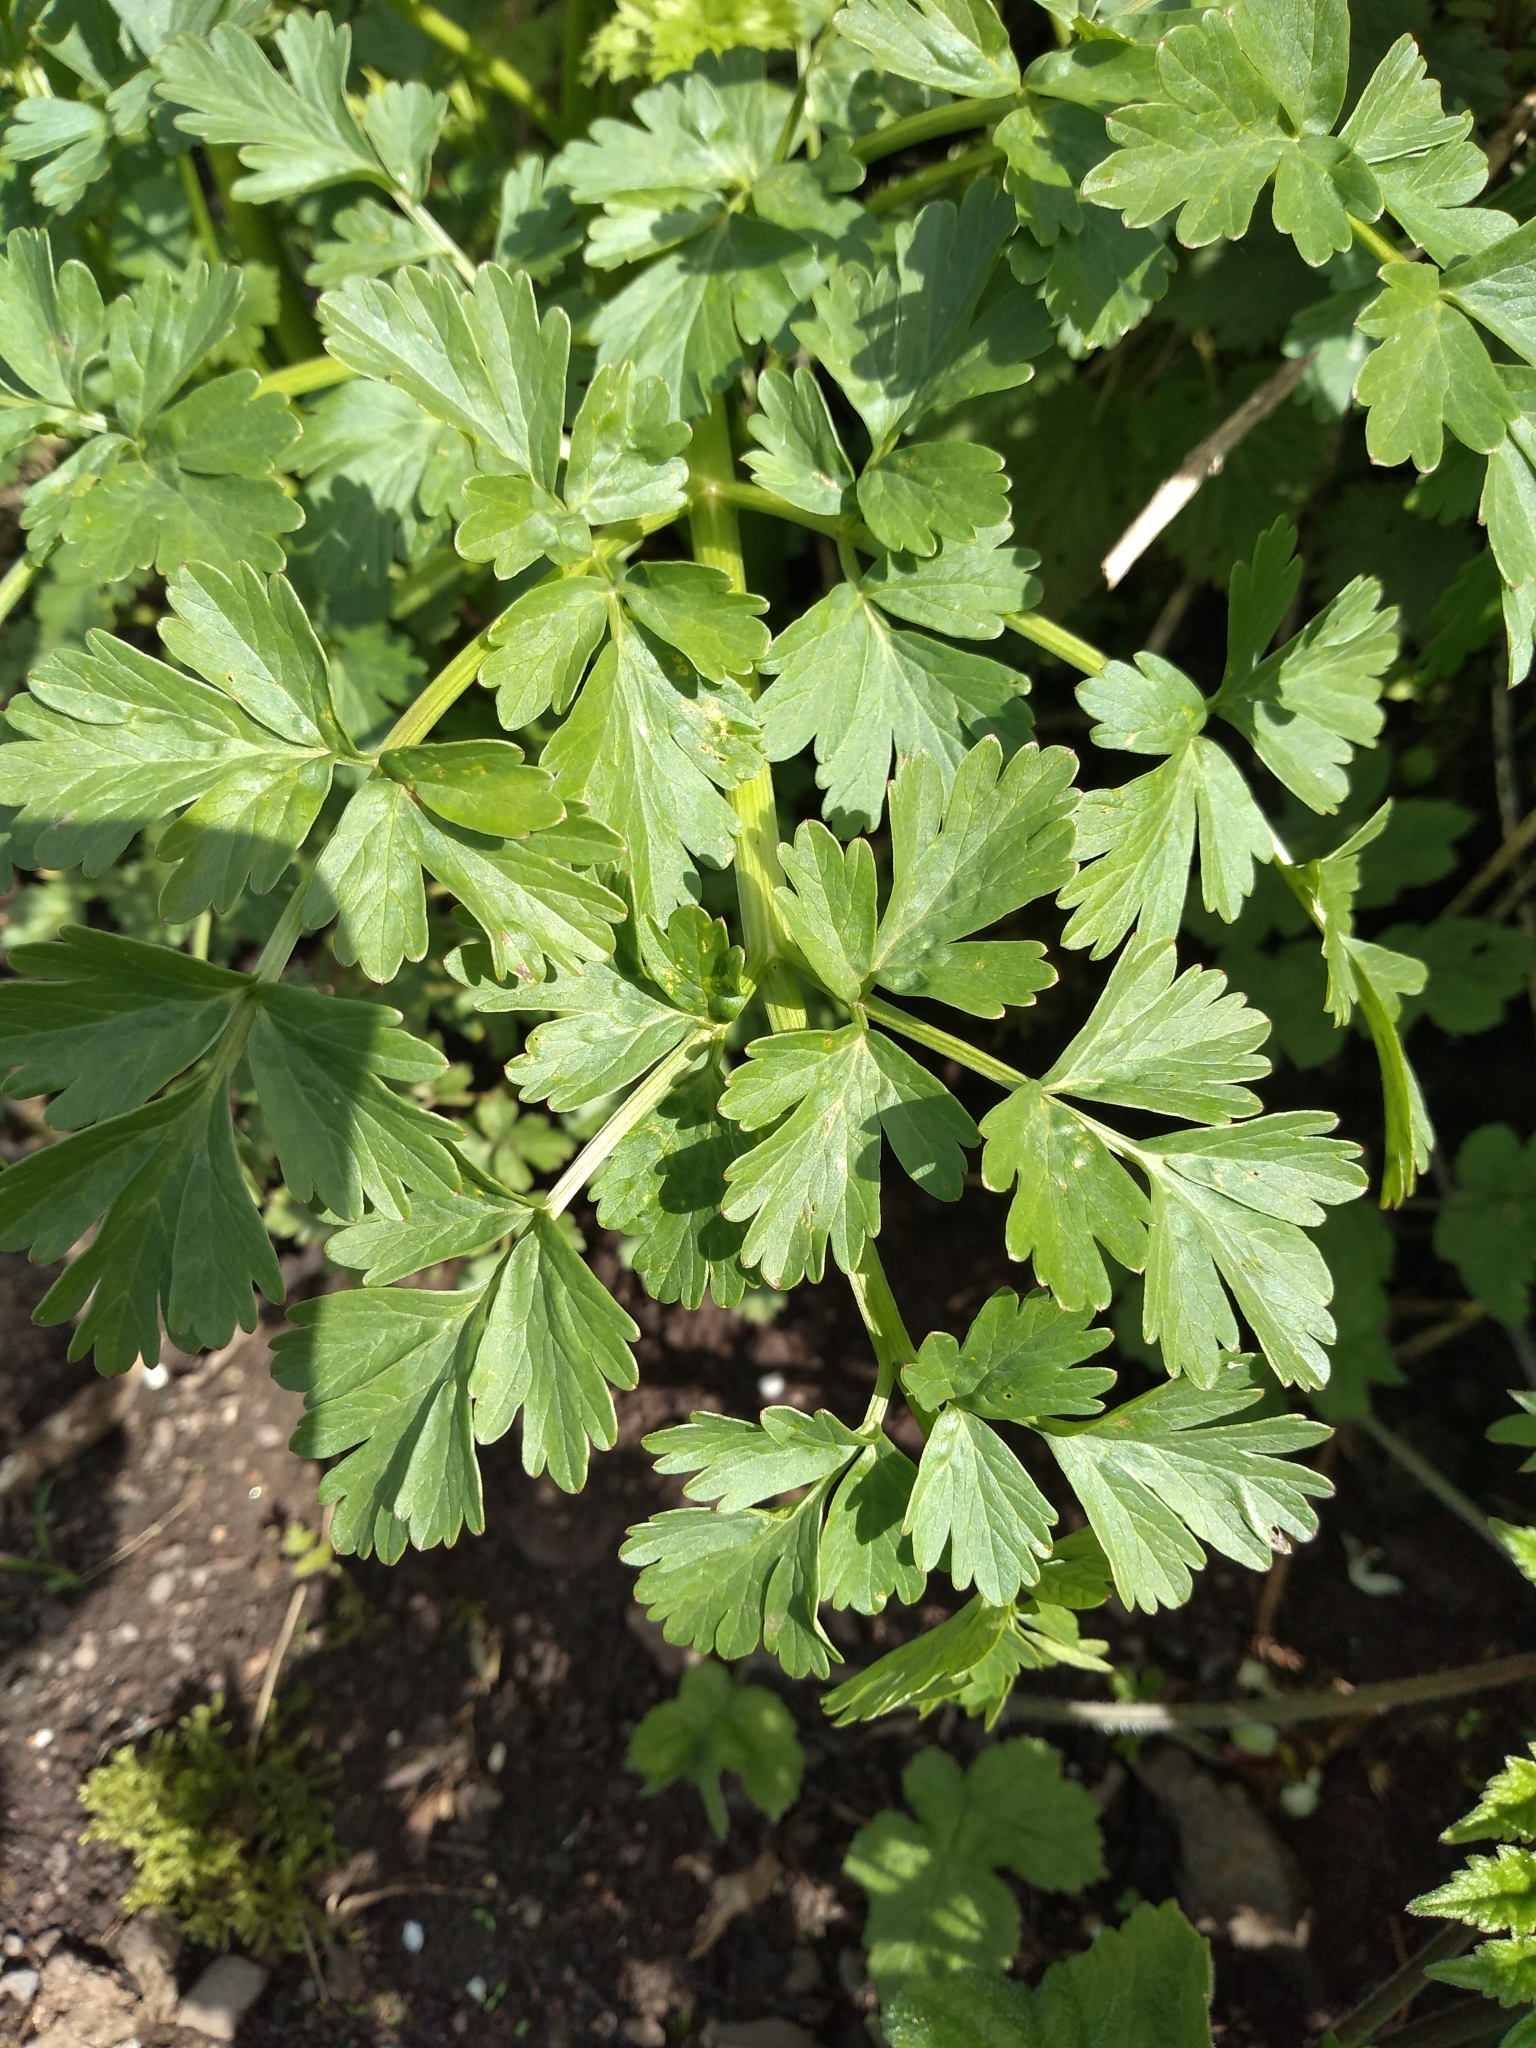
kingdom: Plantae
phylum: Tracheophyta
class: Magnoliopsida
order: Apiales
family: Apiaceae
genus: Oenanthe
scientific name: Oenanthe crocata
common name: Hemlock water-dropwort
